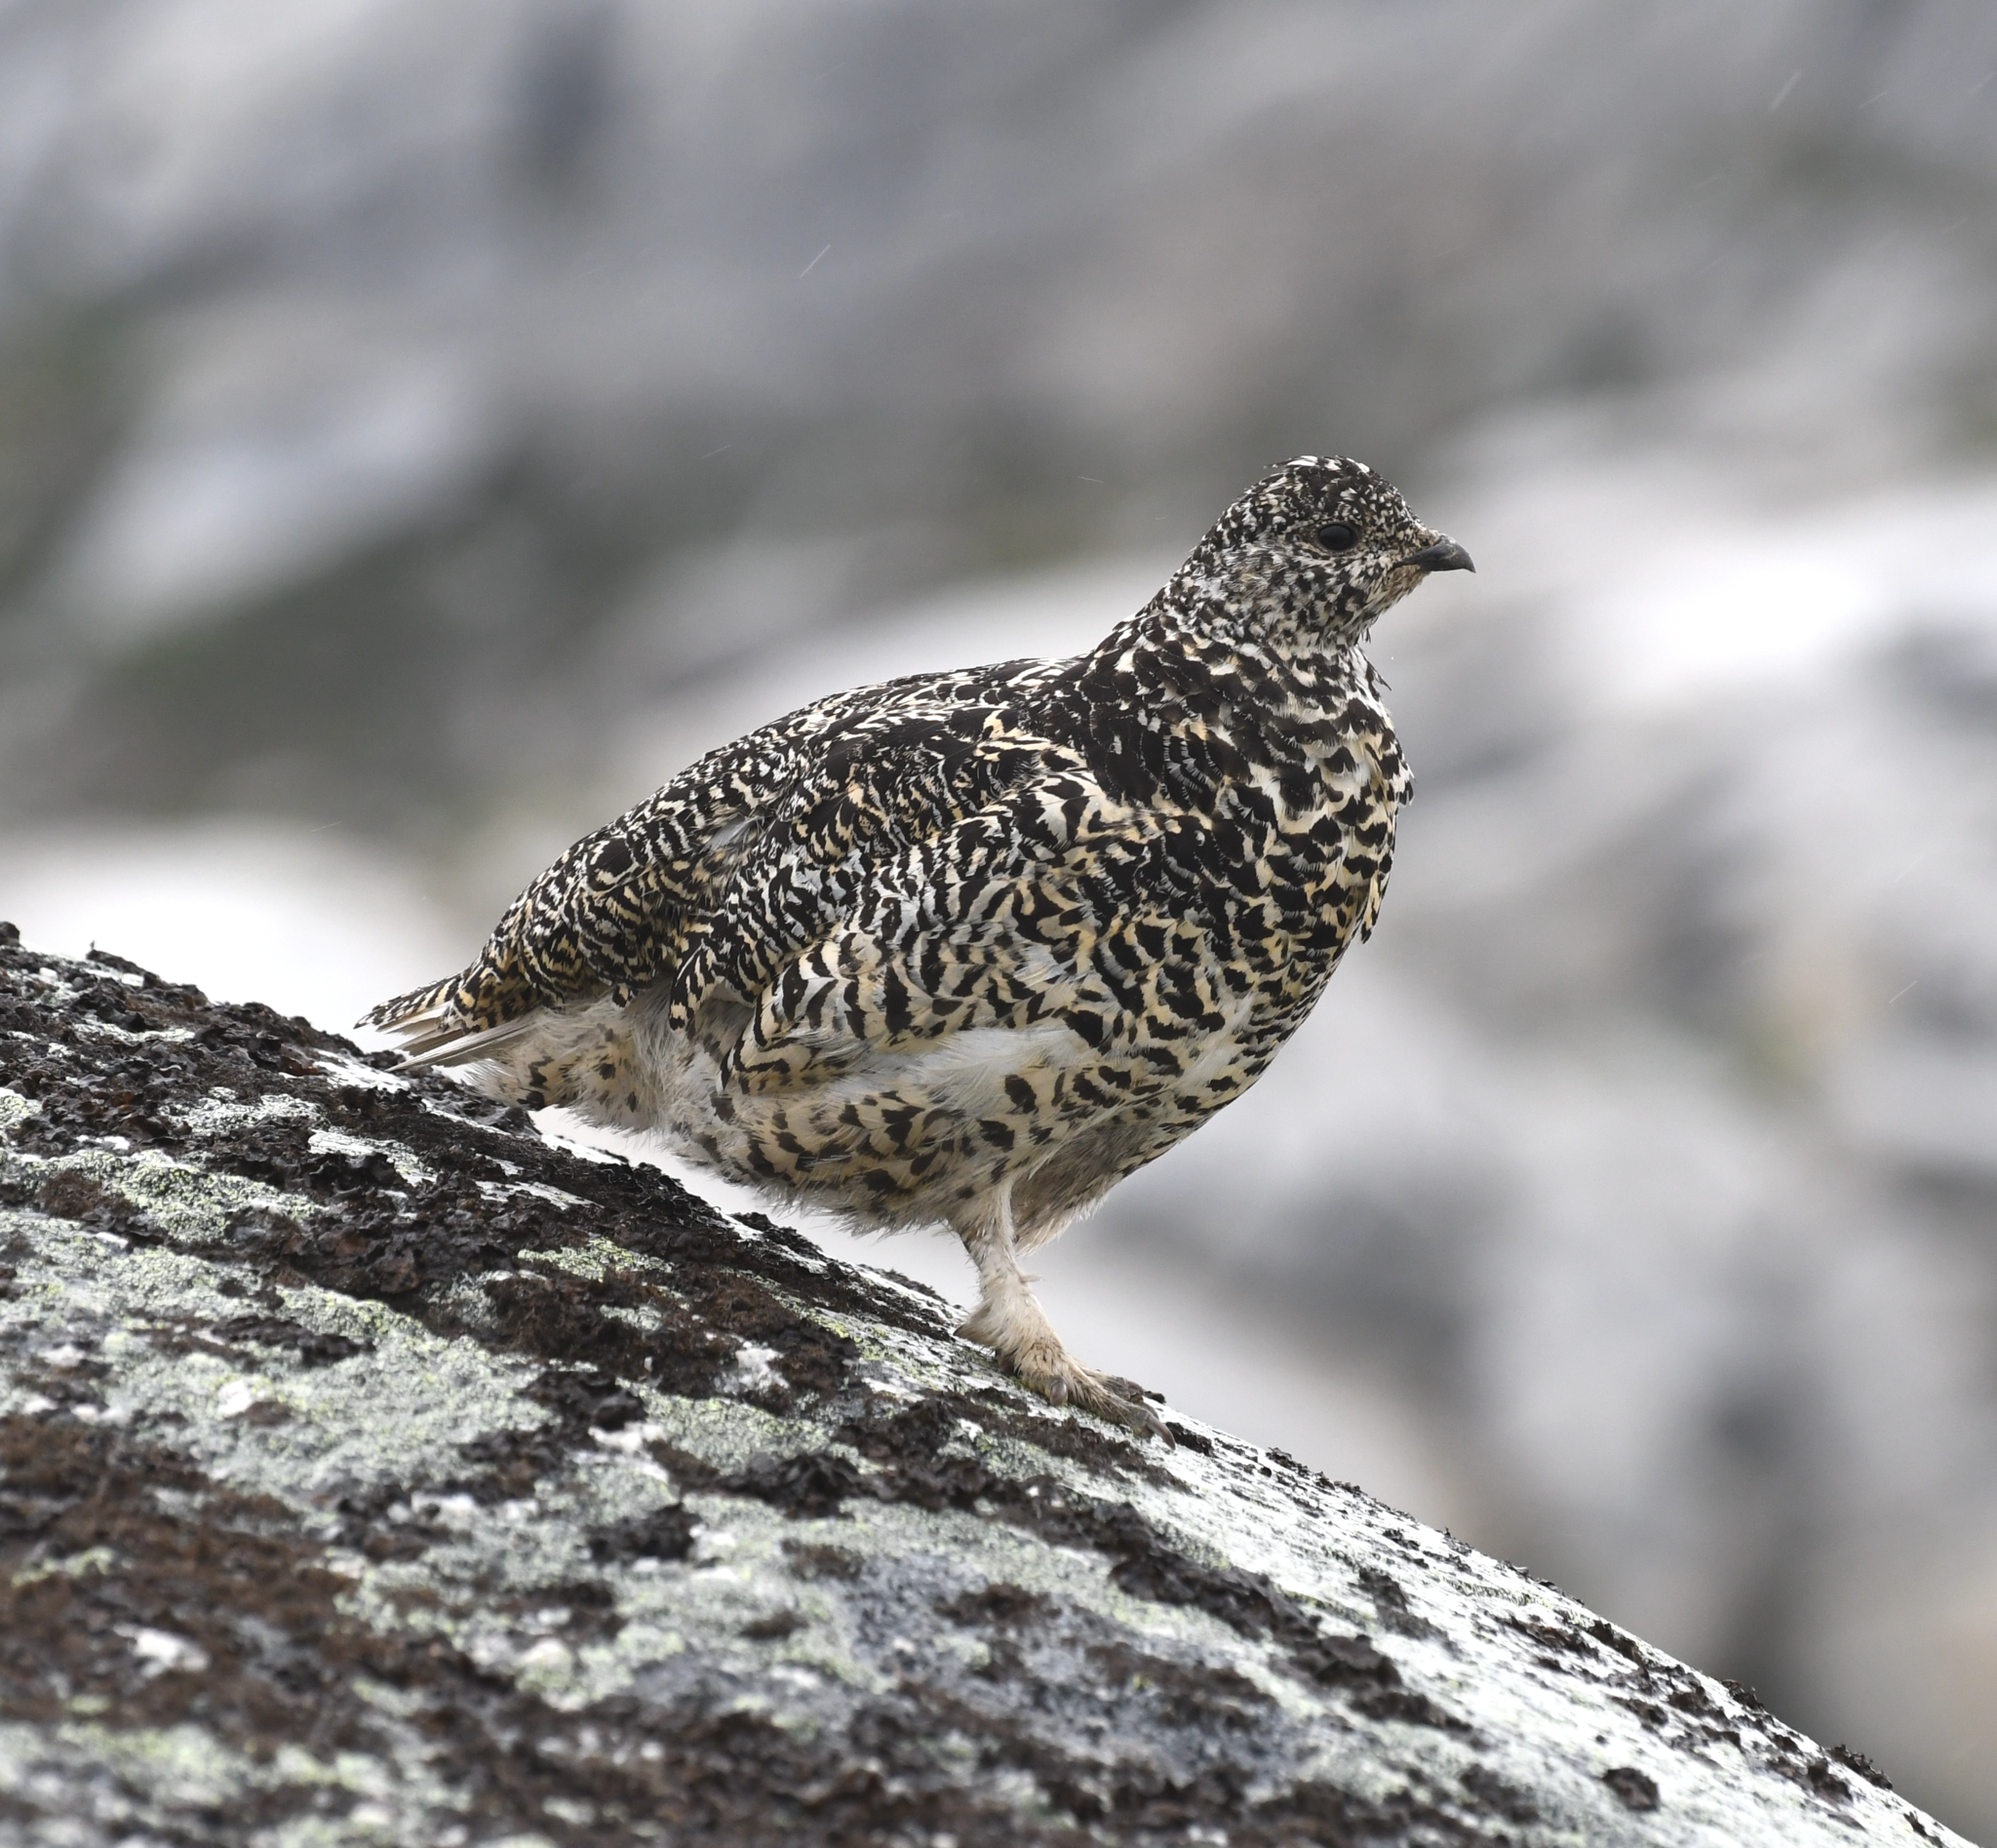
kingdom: Animalia
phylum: Chordata
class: Aves
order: Galliformes
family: Phasianidae
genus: Lagopus
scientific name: Lagopus leucura
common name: White-tailed ptarmigan
